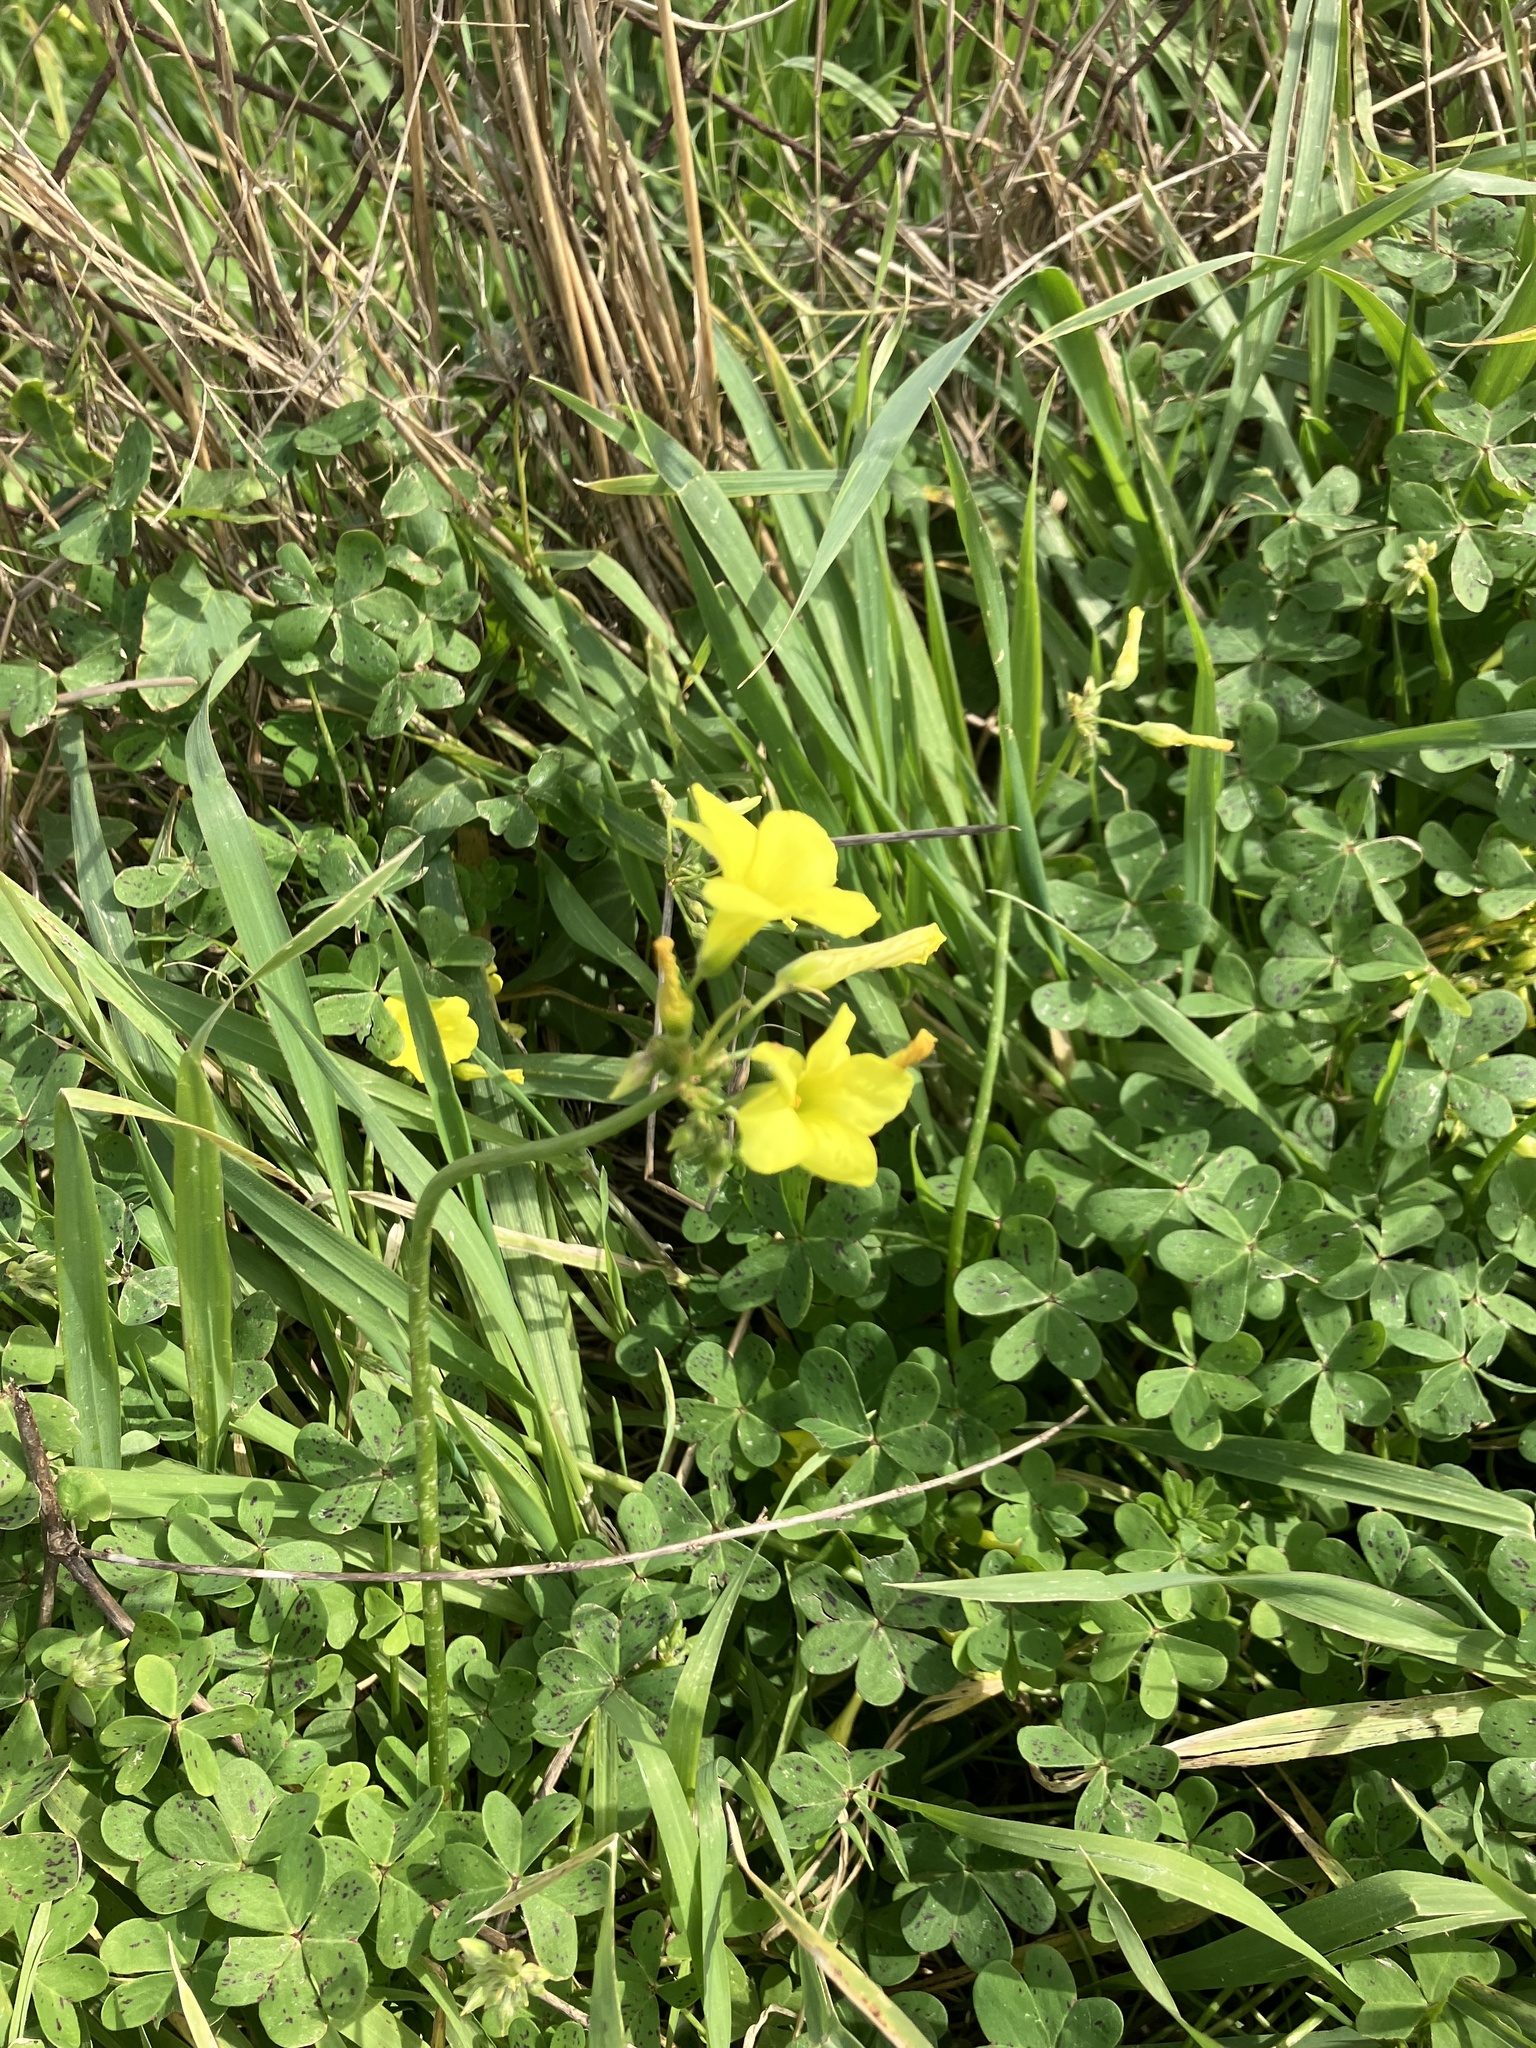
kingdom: Plantae
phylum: Tracheophyta
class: Magnoliopsida
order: Oxalidales
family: Oxalidaceae
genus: Oxalis
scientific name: Oxalis pes-caprae
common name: Bermuda-buttercup
